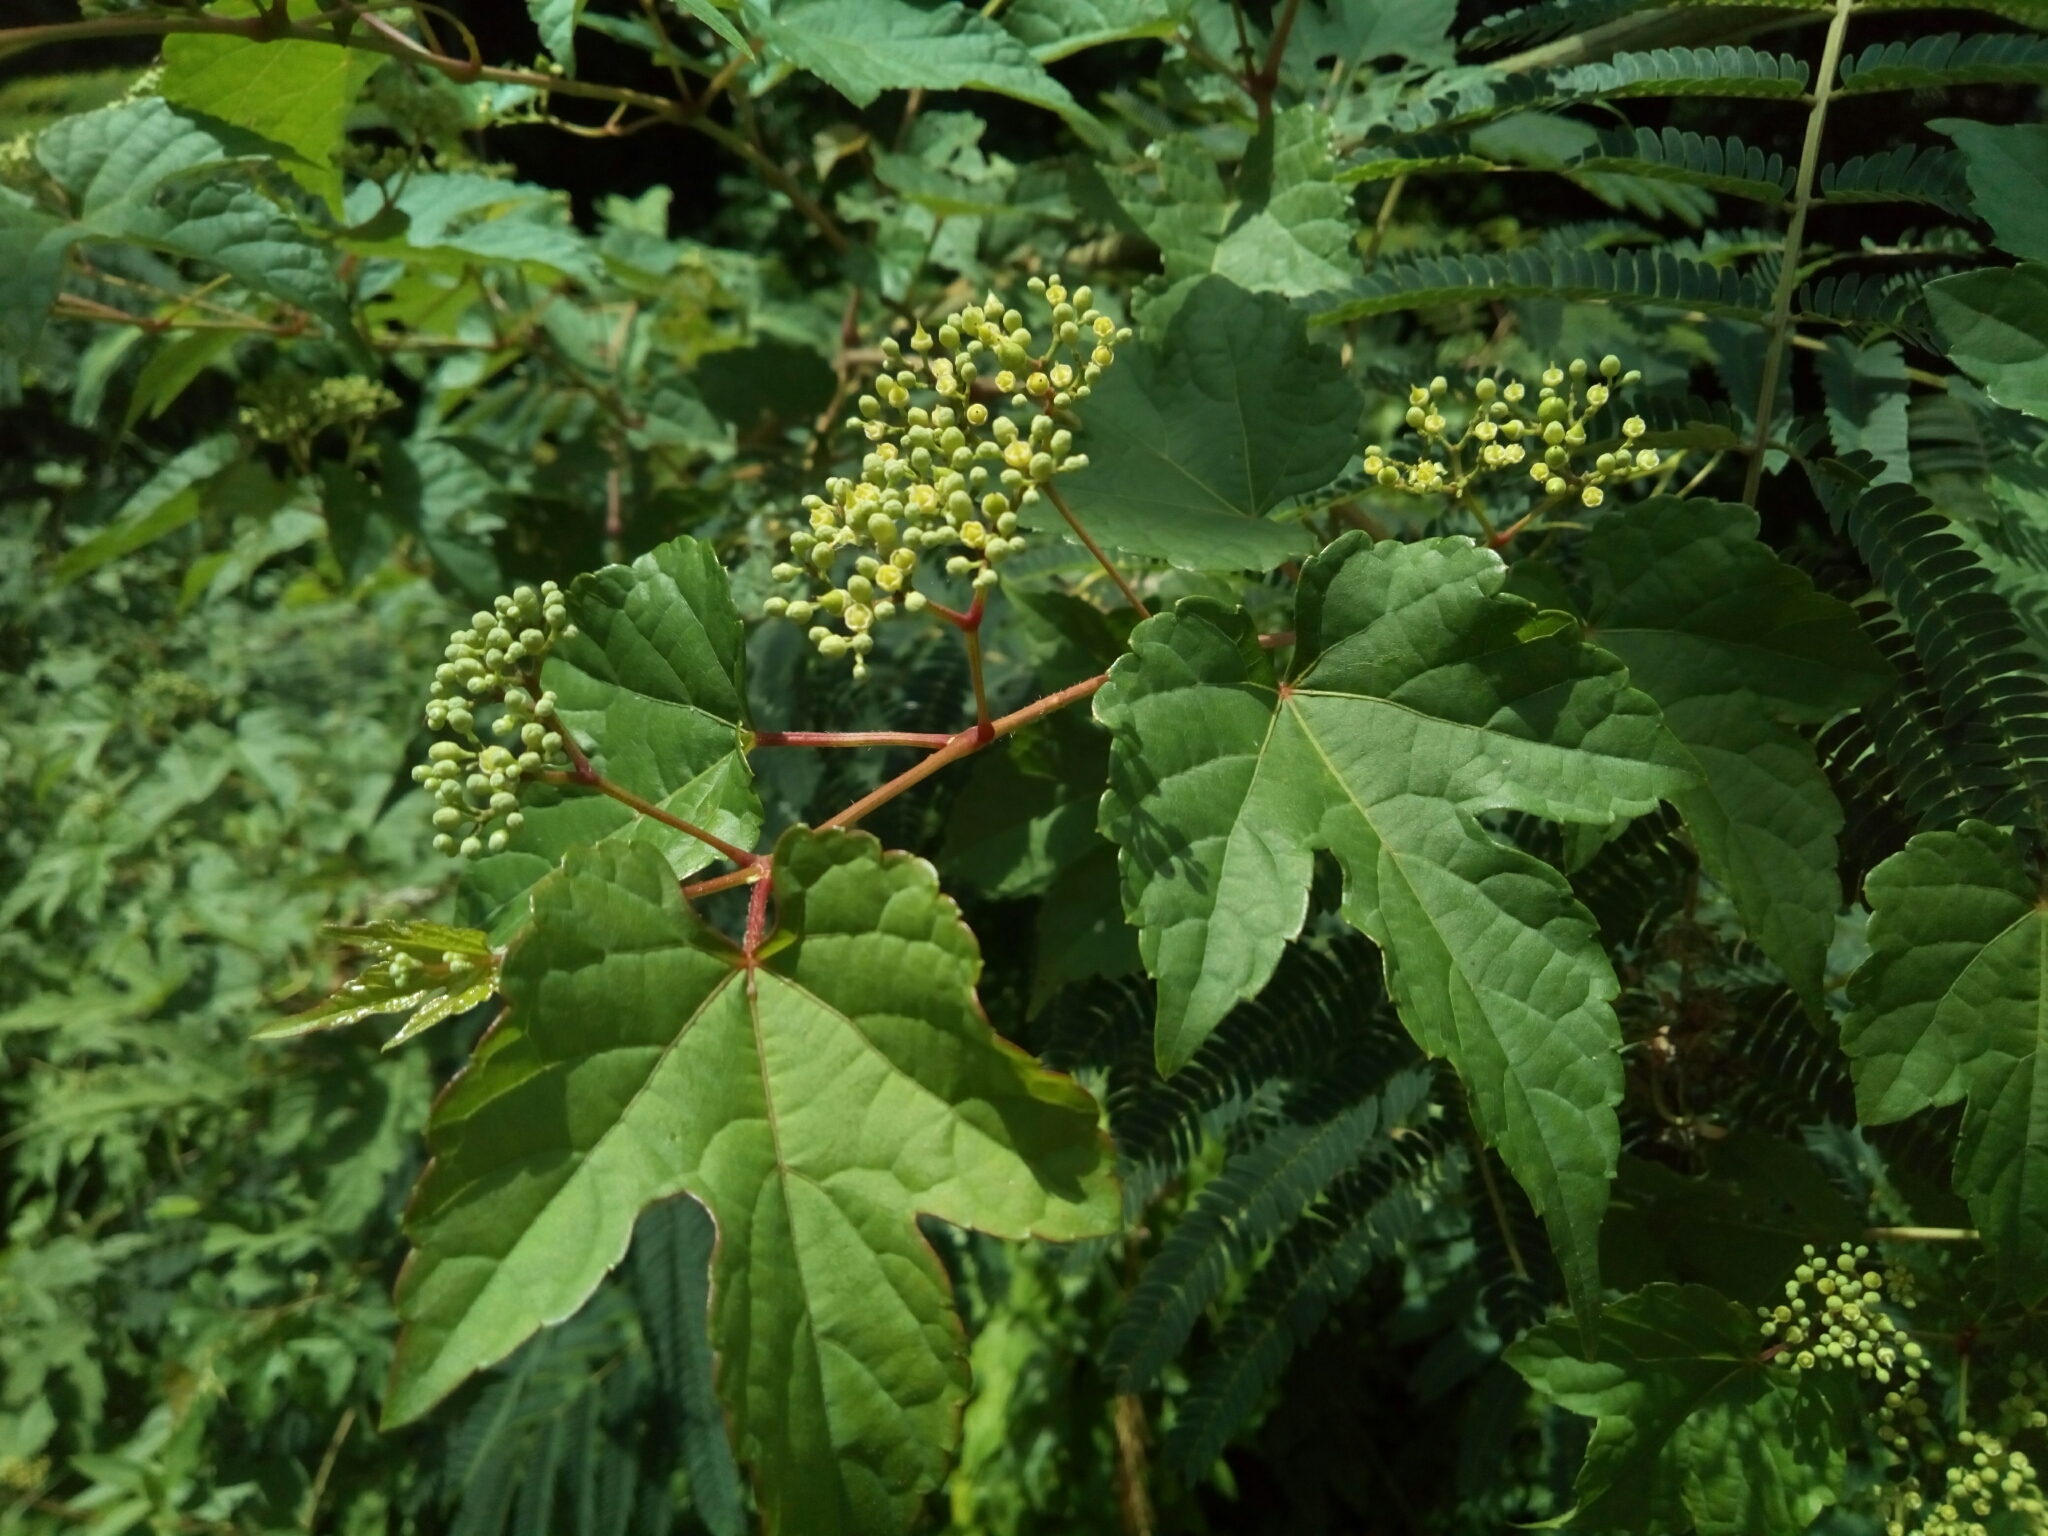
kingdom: Plantae
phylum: Tracheophyta
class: Magnoliopsida
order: Vitales
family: Vitaceae
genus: Ampelopsis
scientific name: Ampelopsis glandulosa
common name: Amur peppervine
